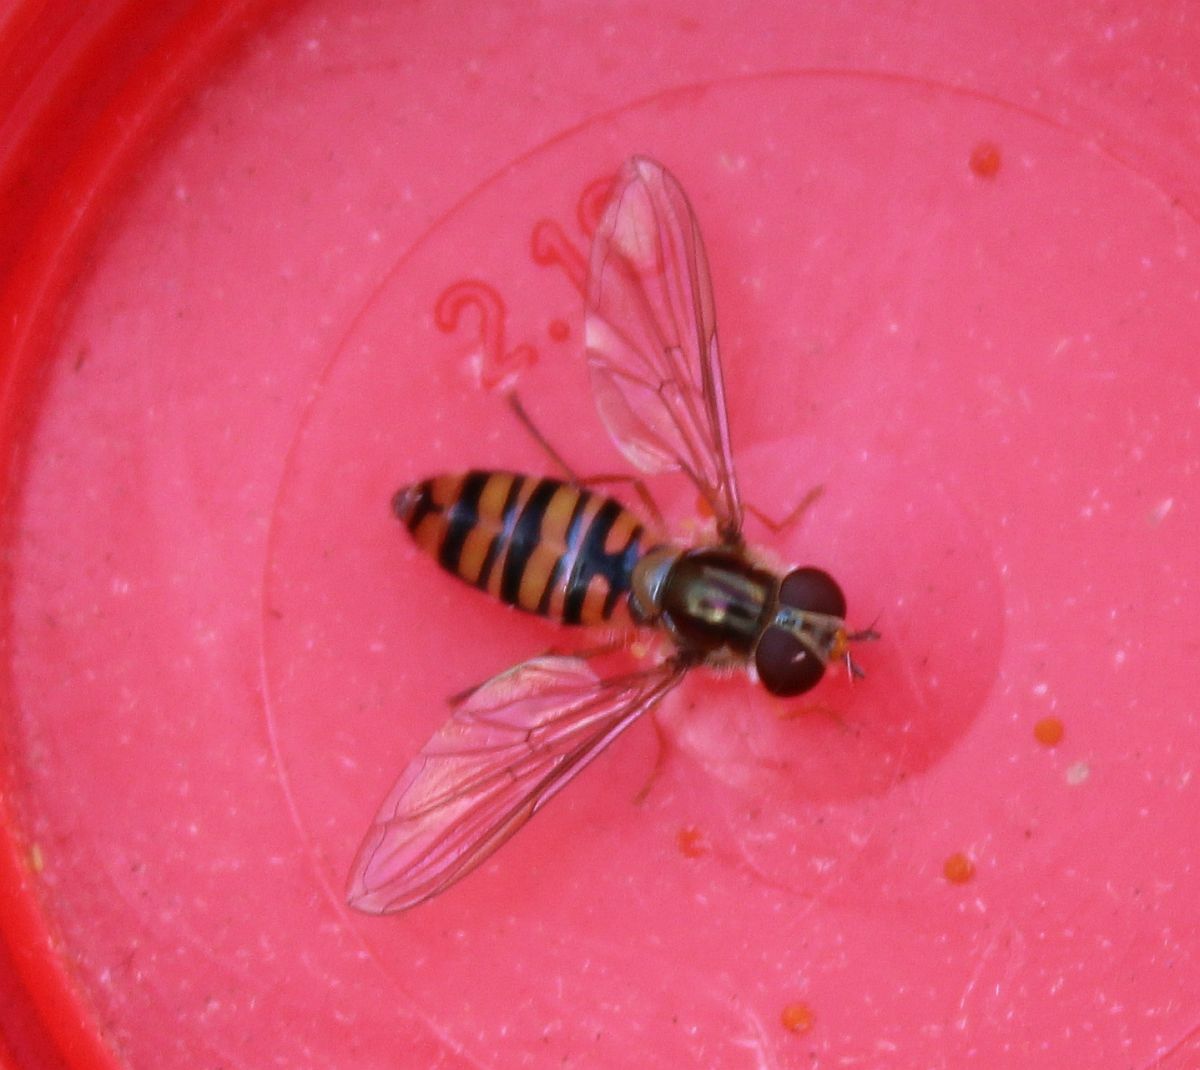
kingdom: Animalia
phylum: Arthropoda
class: Insecta
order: Diptera
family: Syrphidae
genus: Episyrphus
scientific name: Episyrphus balteatus
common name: Marmalade hoverfly
